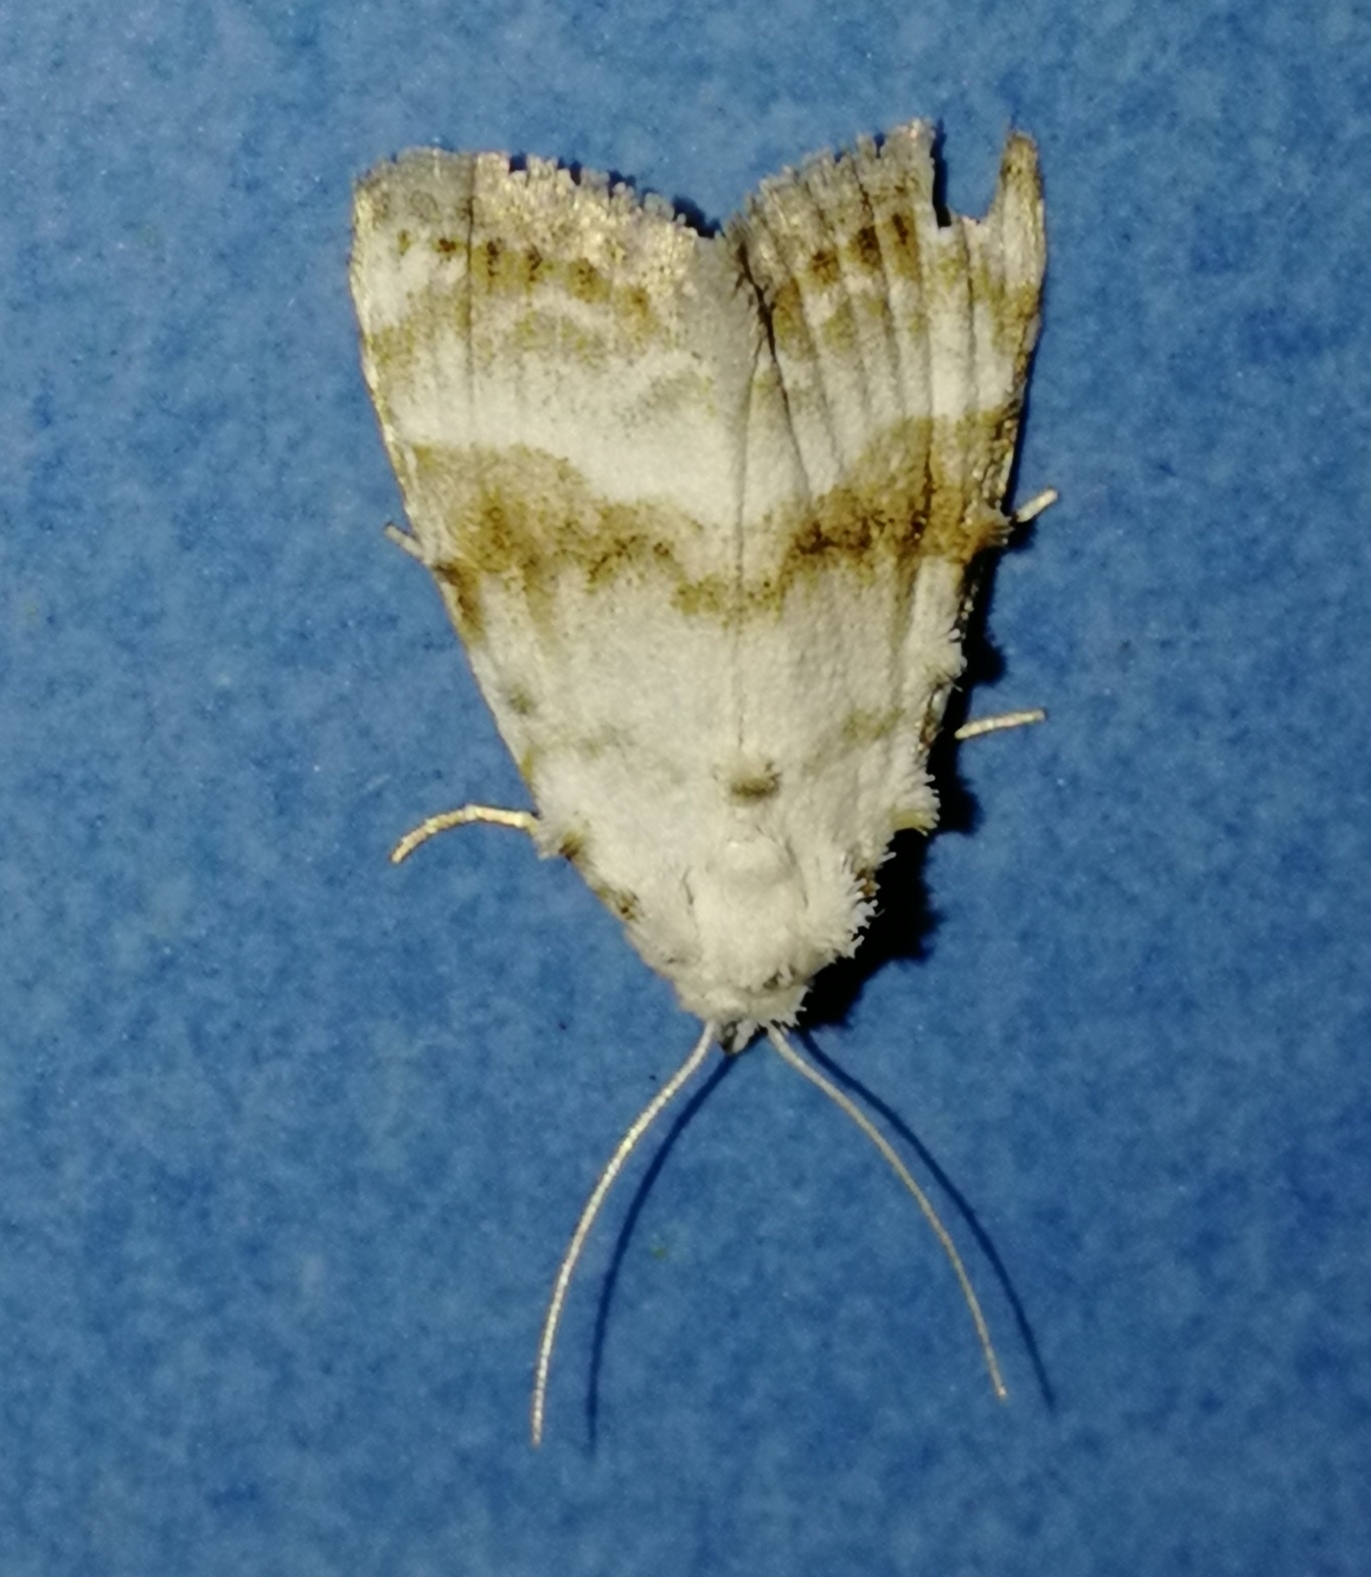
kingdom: Animalia
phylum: Arthropoda
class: Insecta
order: Lepidoptera
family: Nolidae
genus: Meganola
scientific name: Meganola albula
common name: Kent black arches
